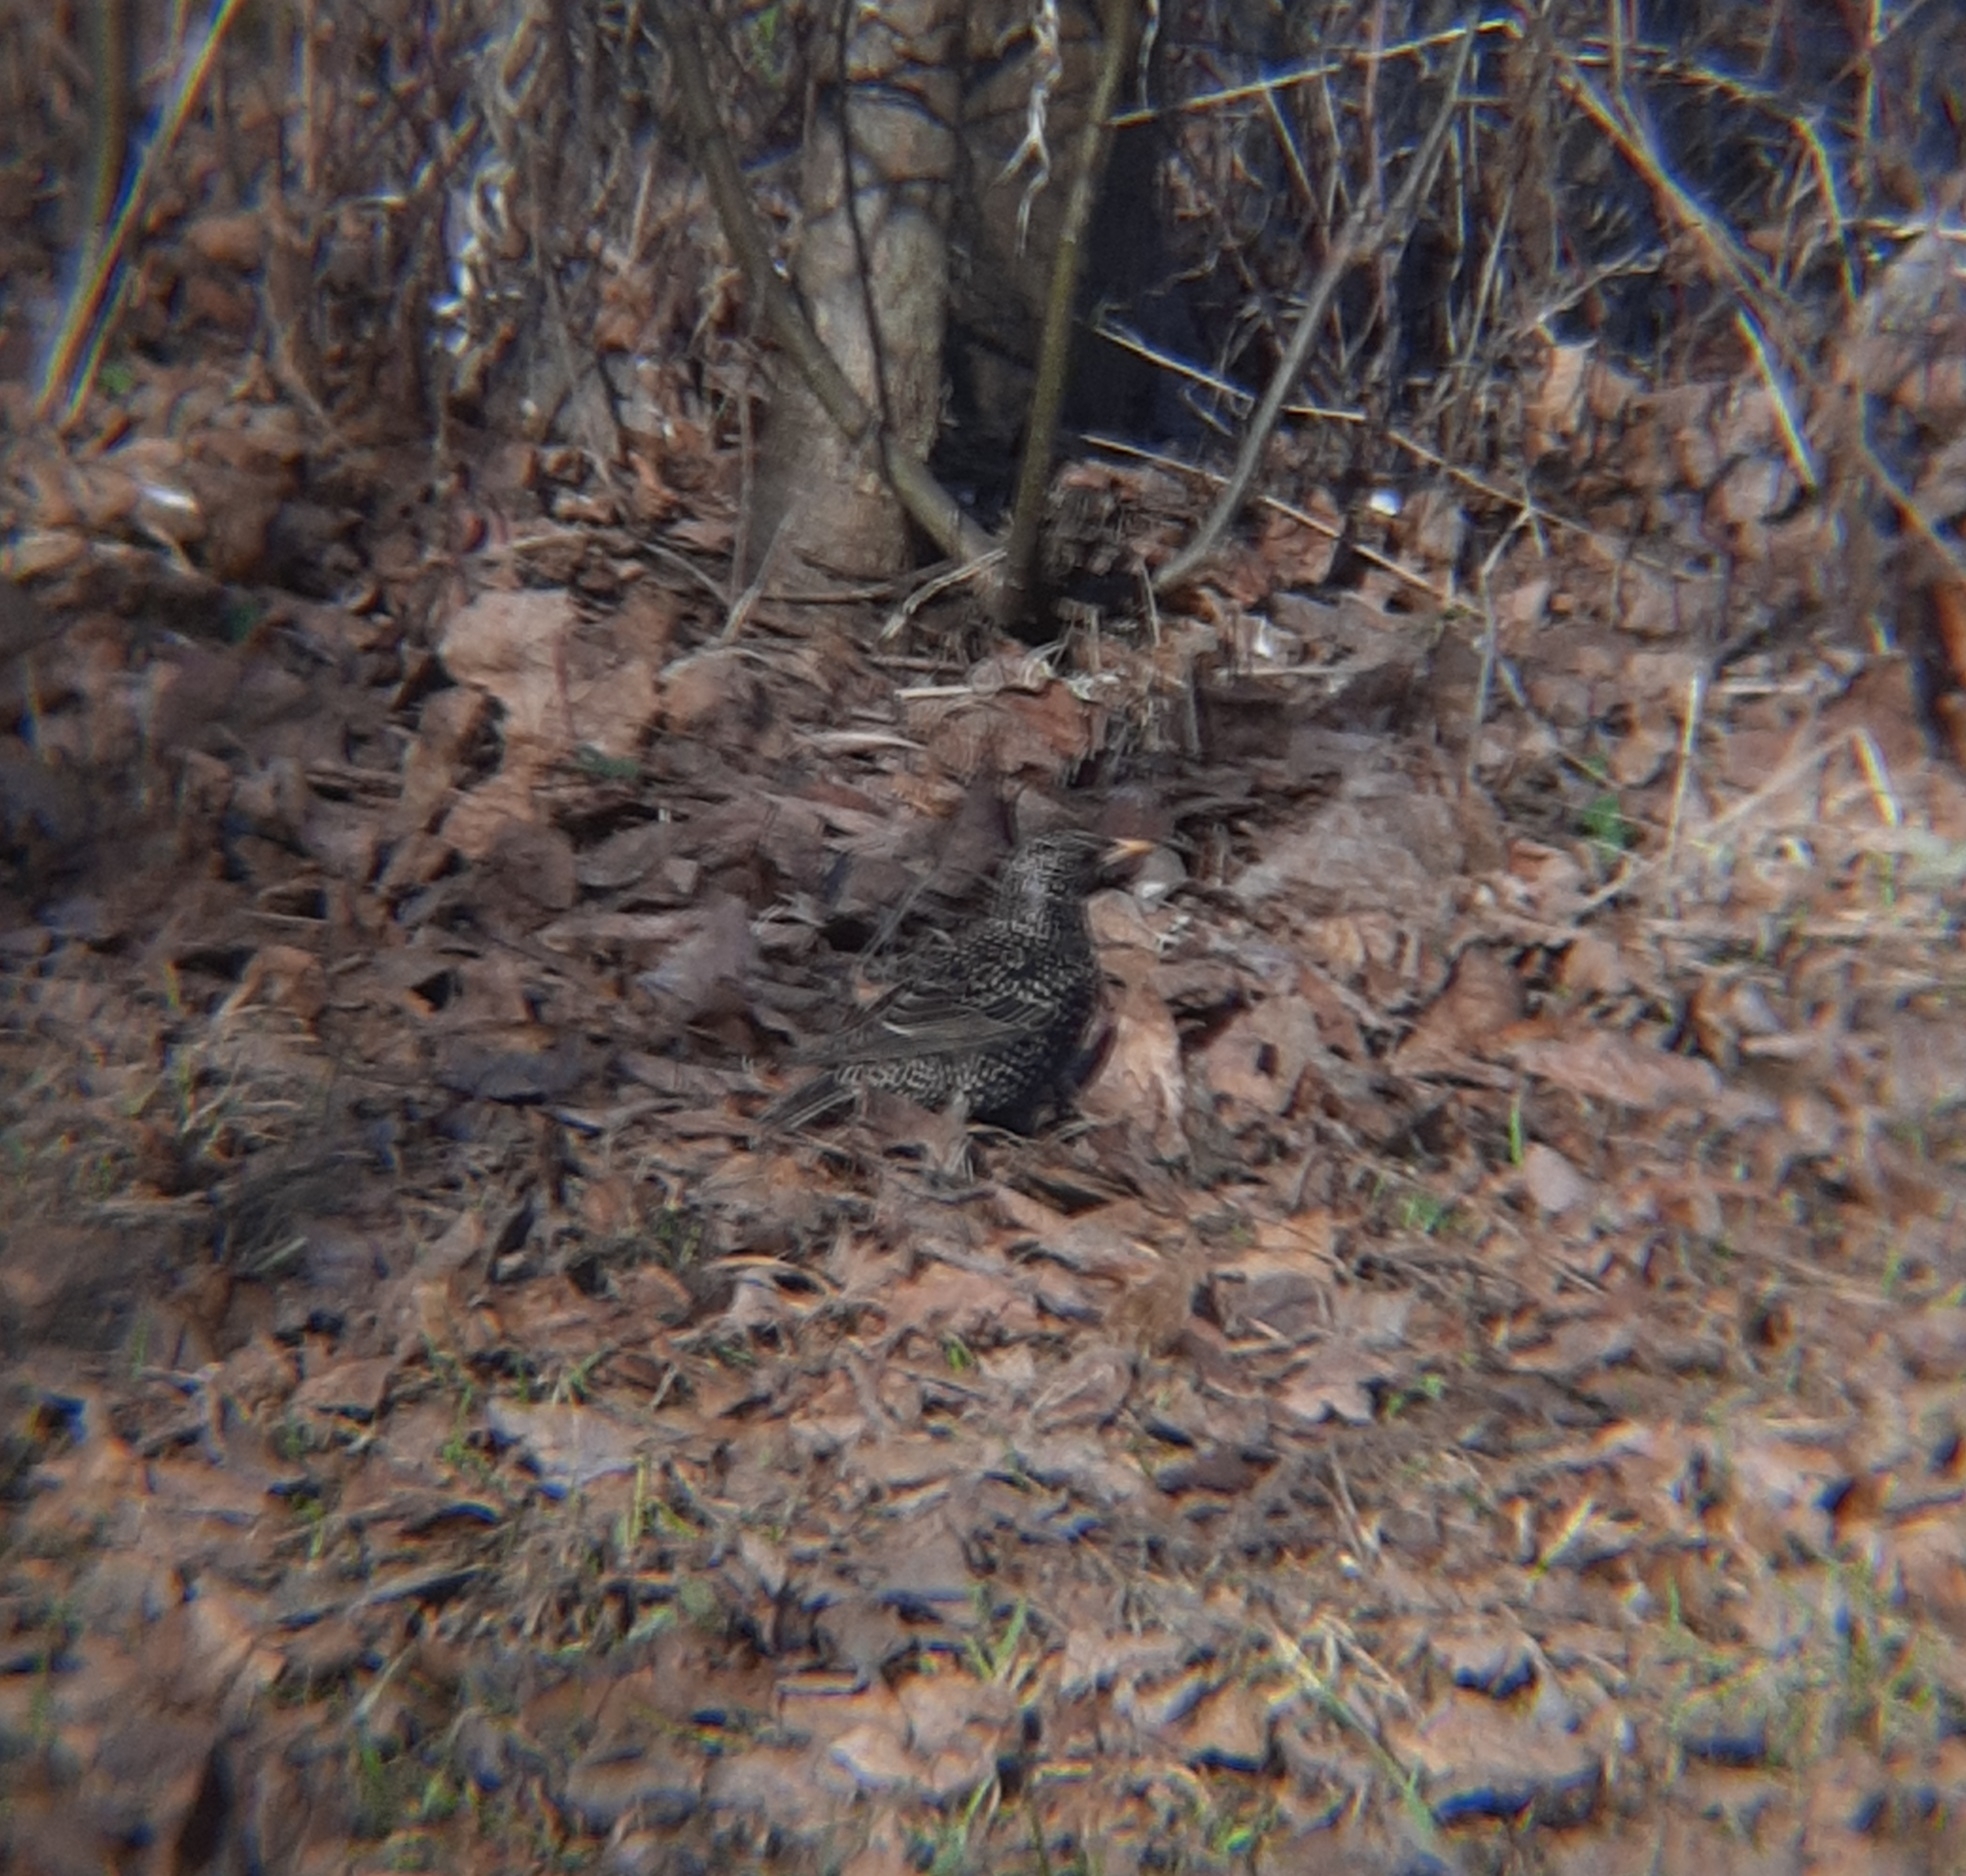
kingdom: Animalia
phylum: Chordata
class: Aves
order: Passeriformes
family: Sturnidae
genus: Sturnus
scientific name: Sturnus vulgaris
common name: Common starling
